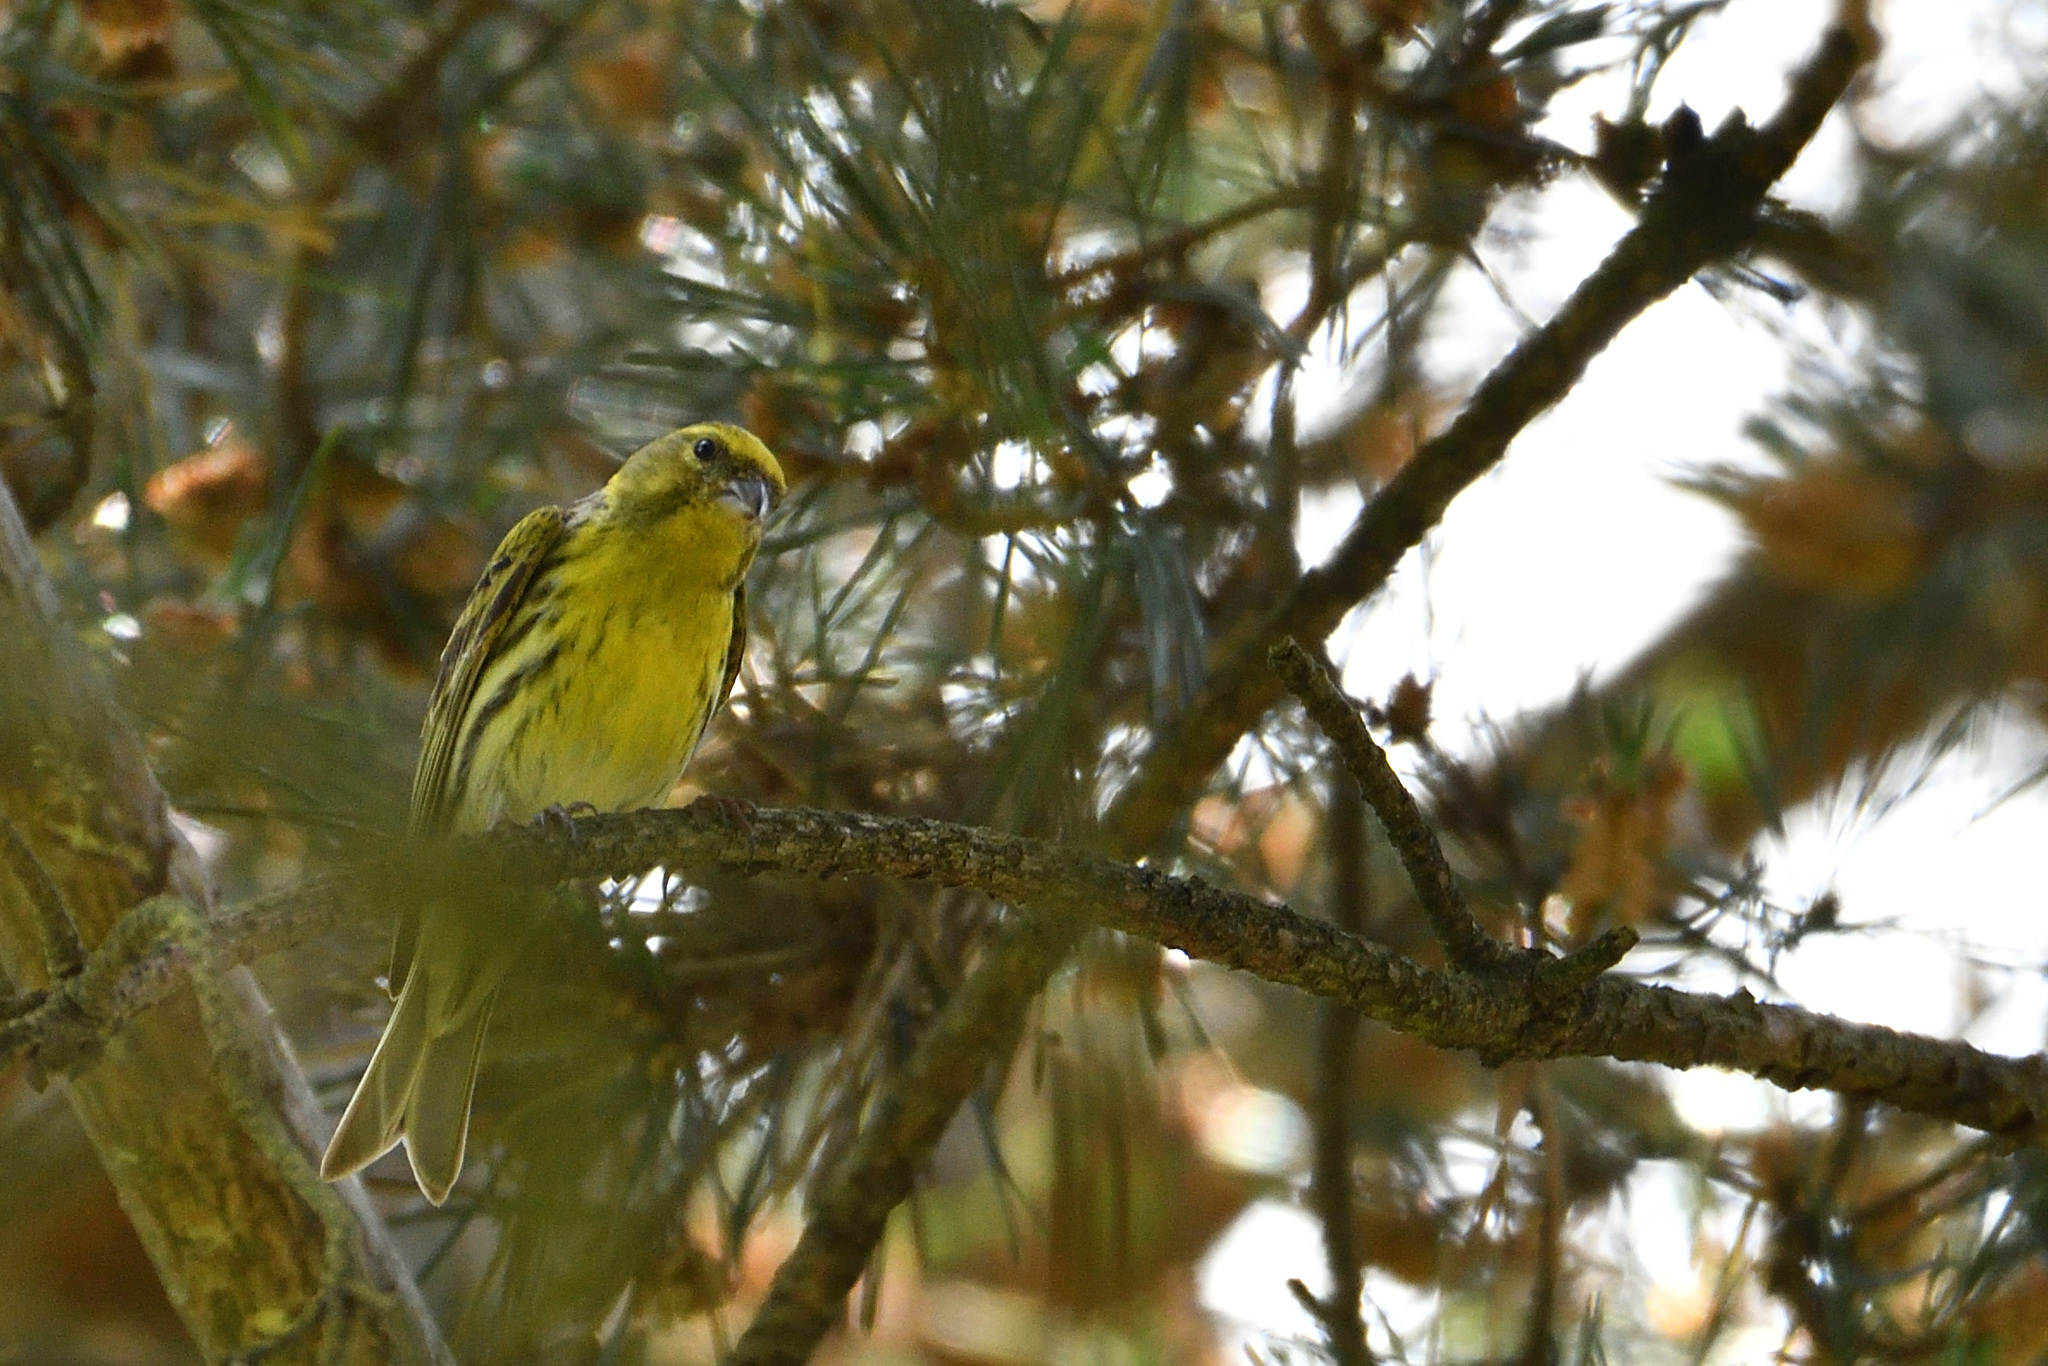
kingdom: Animalia
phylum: Chordata
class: Aves
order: Passeriformes
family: Fringillidae
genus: Serinus
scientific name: Serinus serinus
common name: European serin
